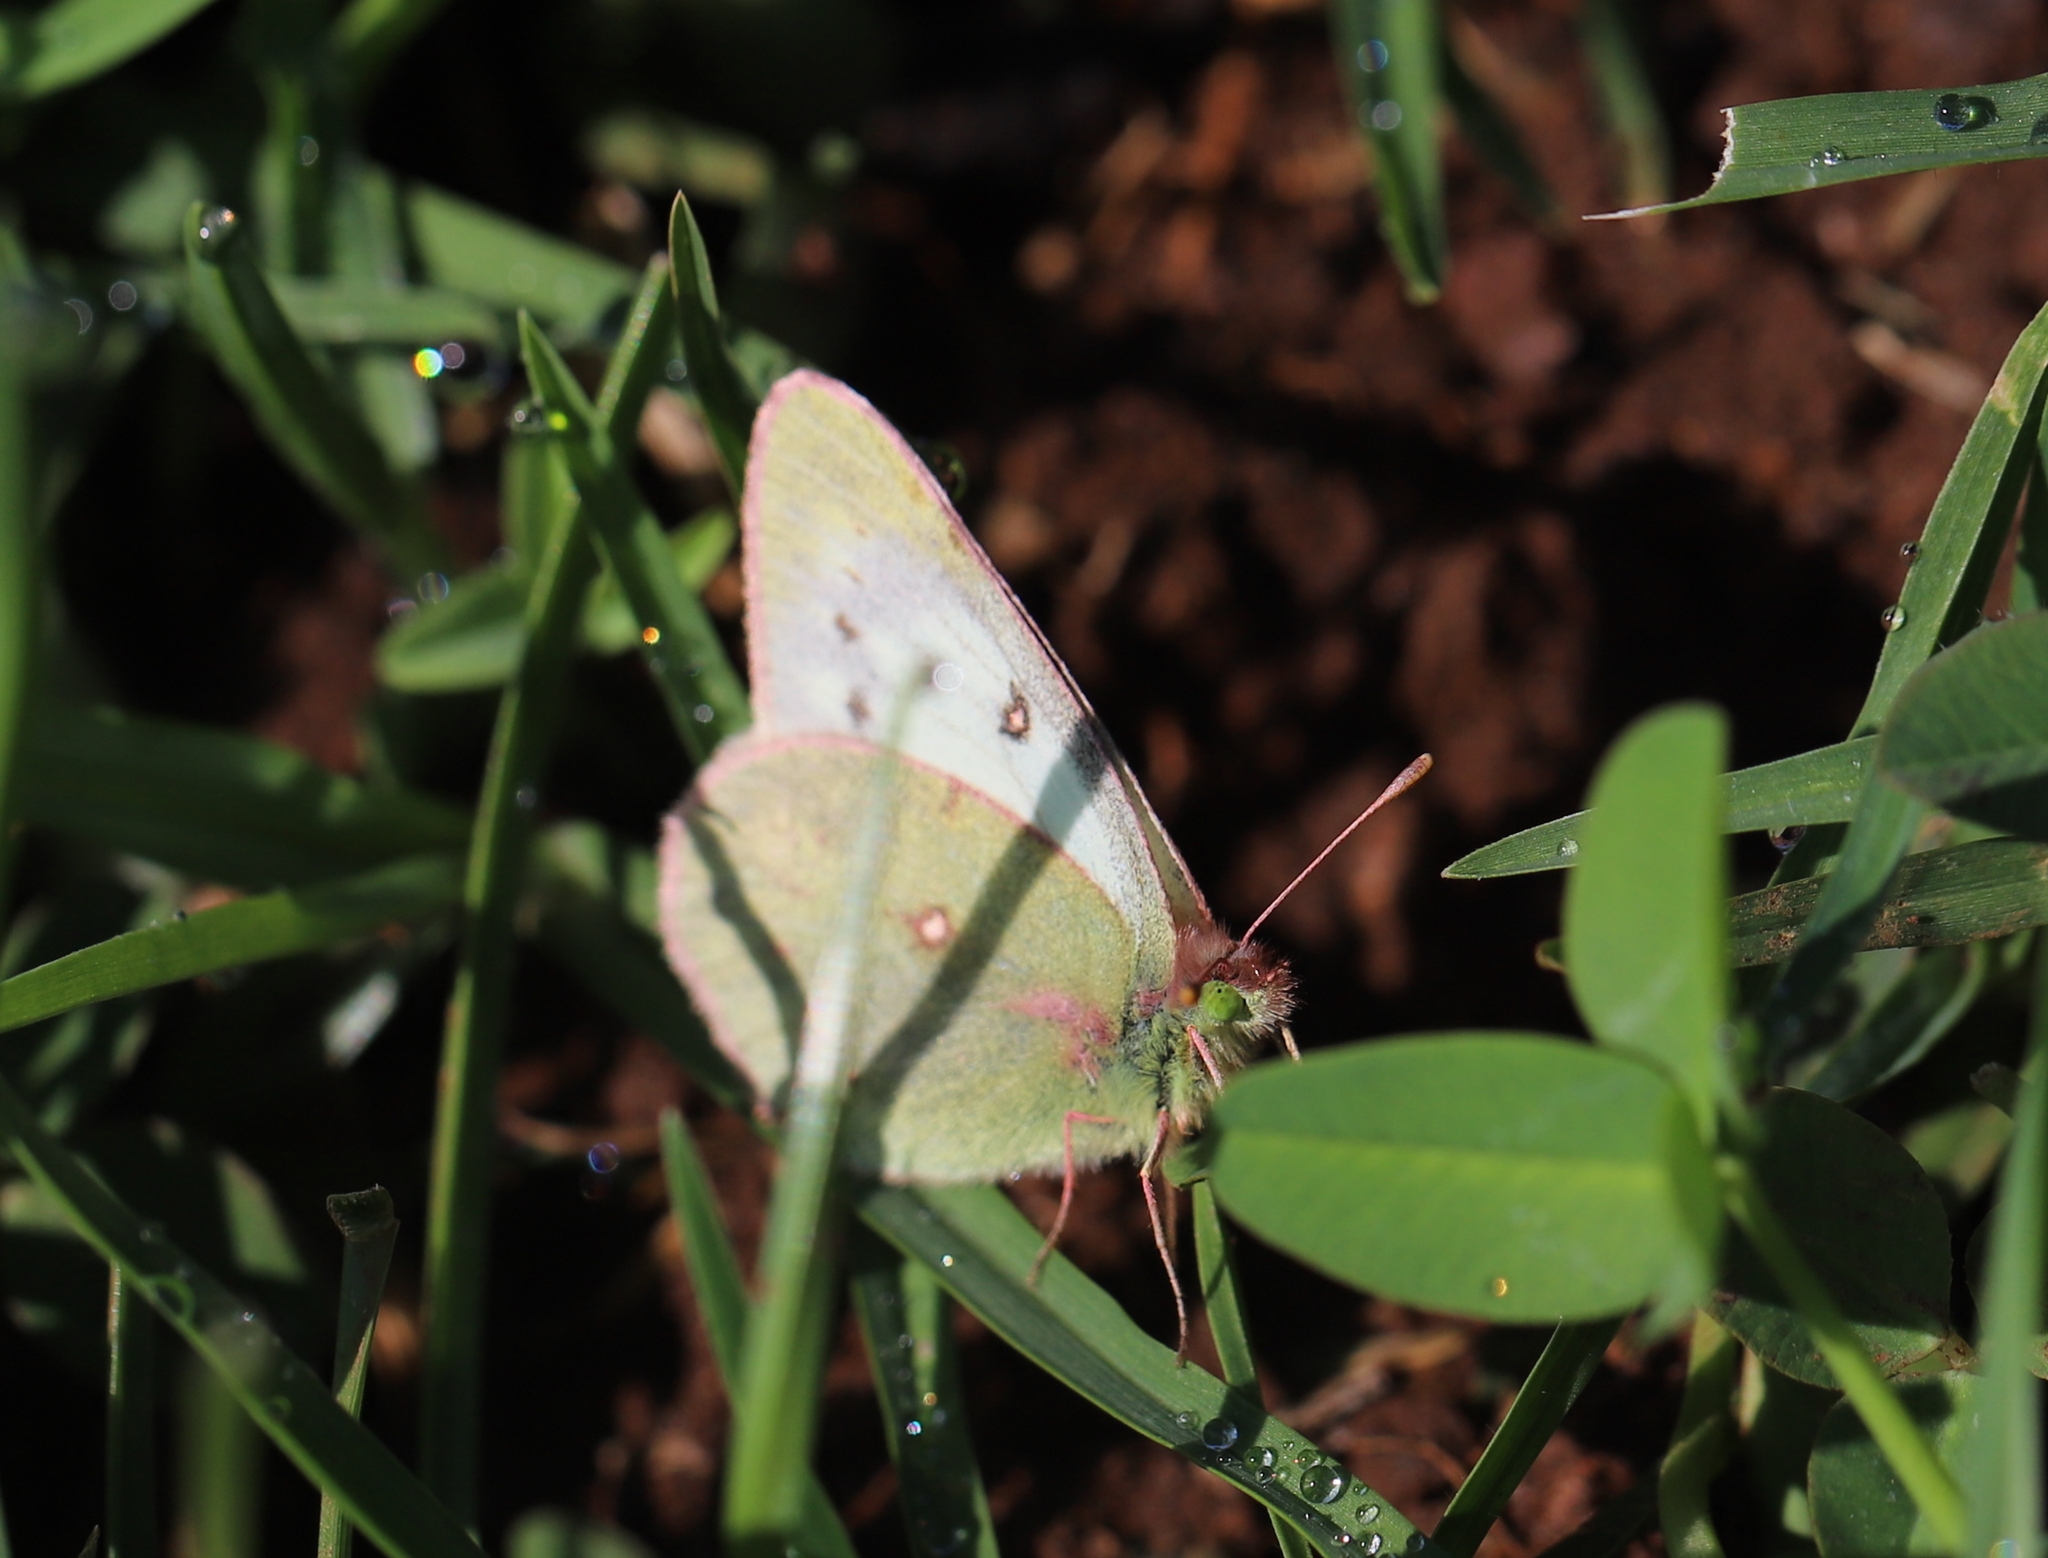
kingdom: Animalia
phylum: Arthropoda
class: Insecta
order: Lepidoptera
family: Pieridae
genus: Colias
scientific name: Colias vauthierii
